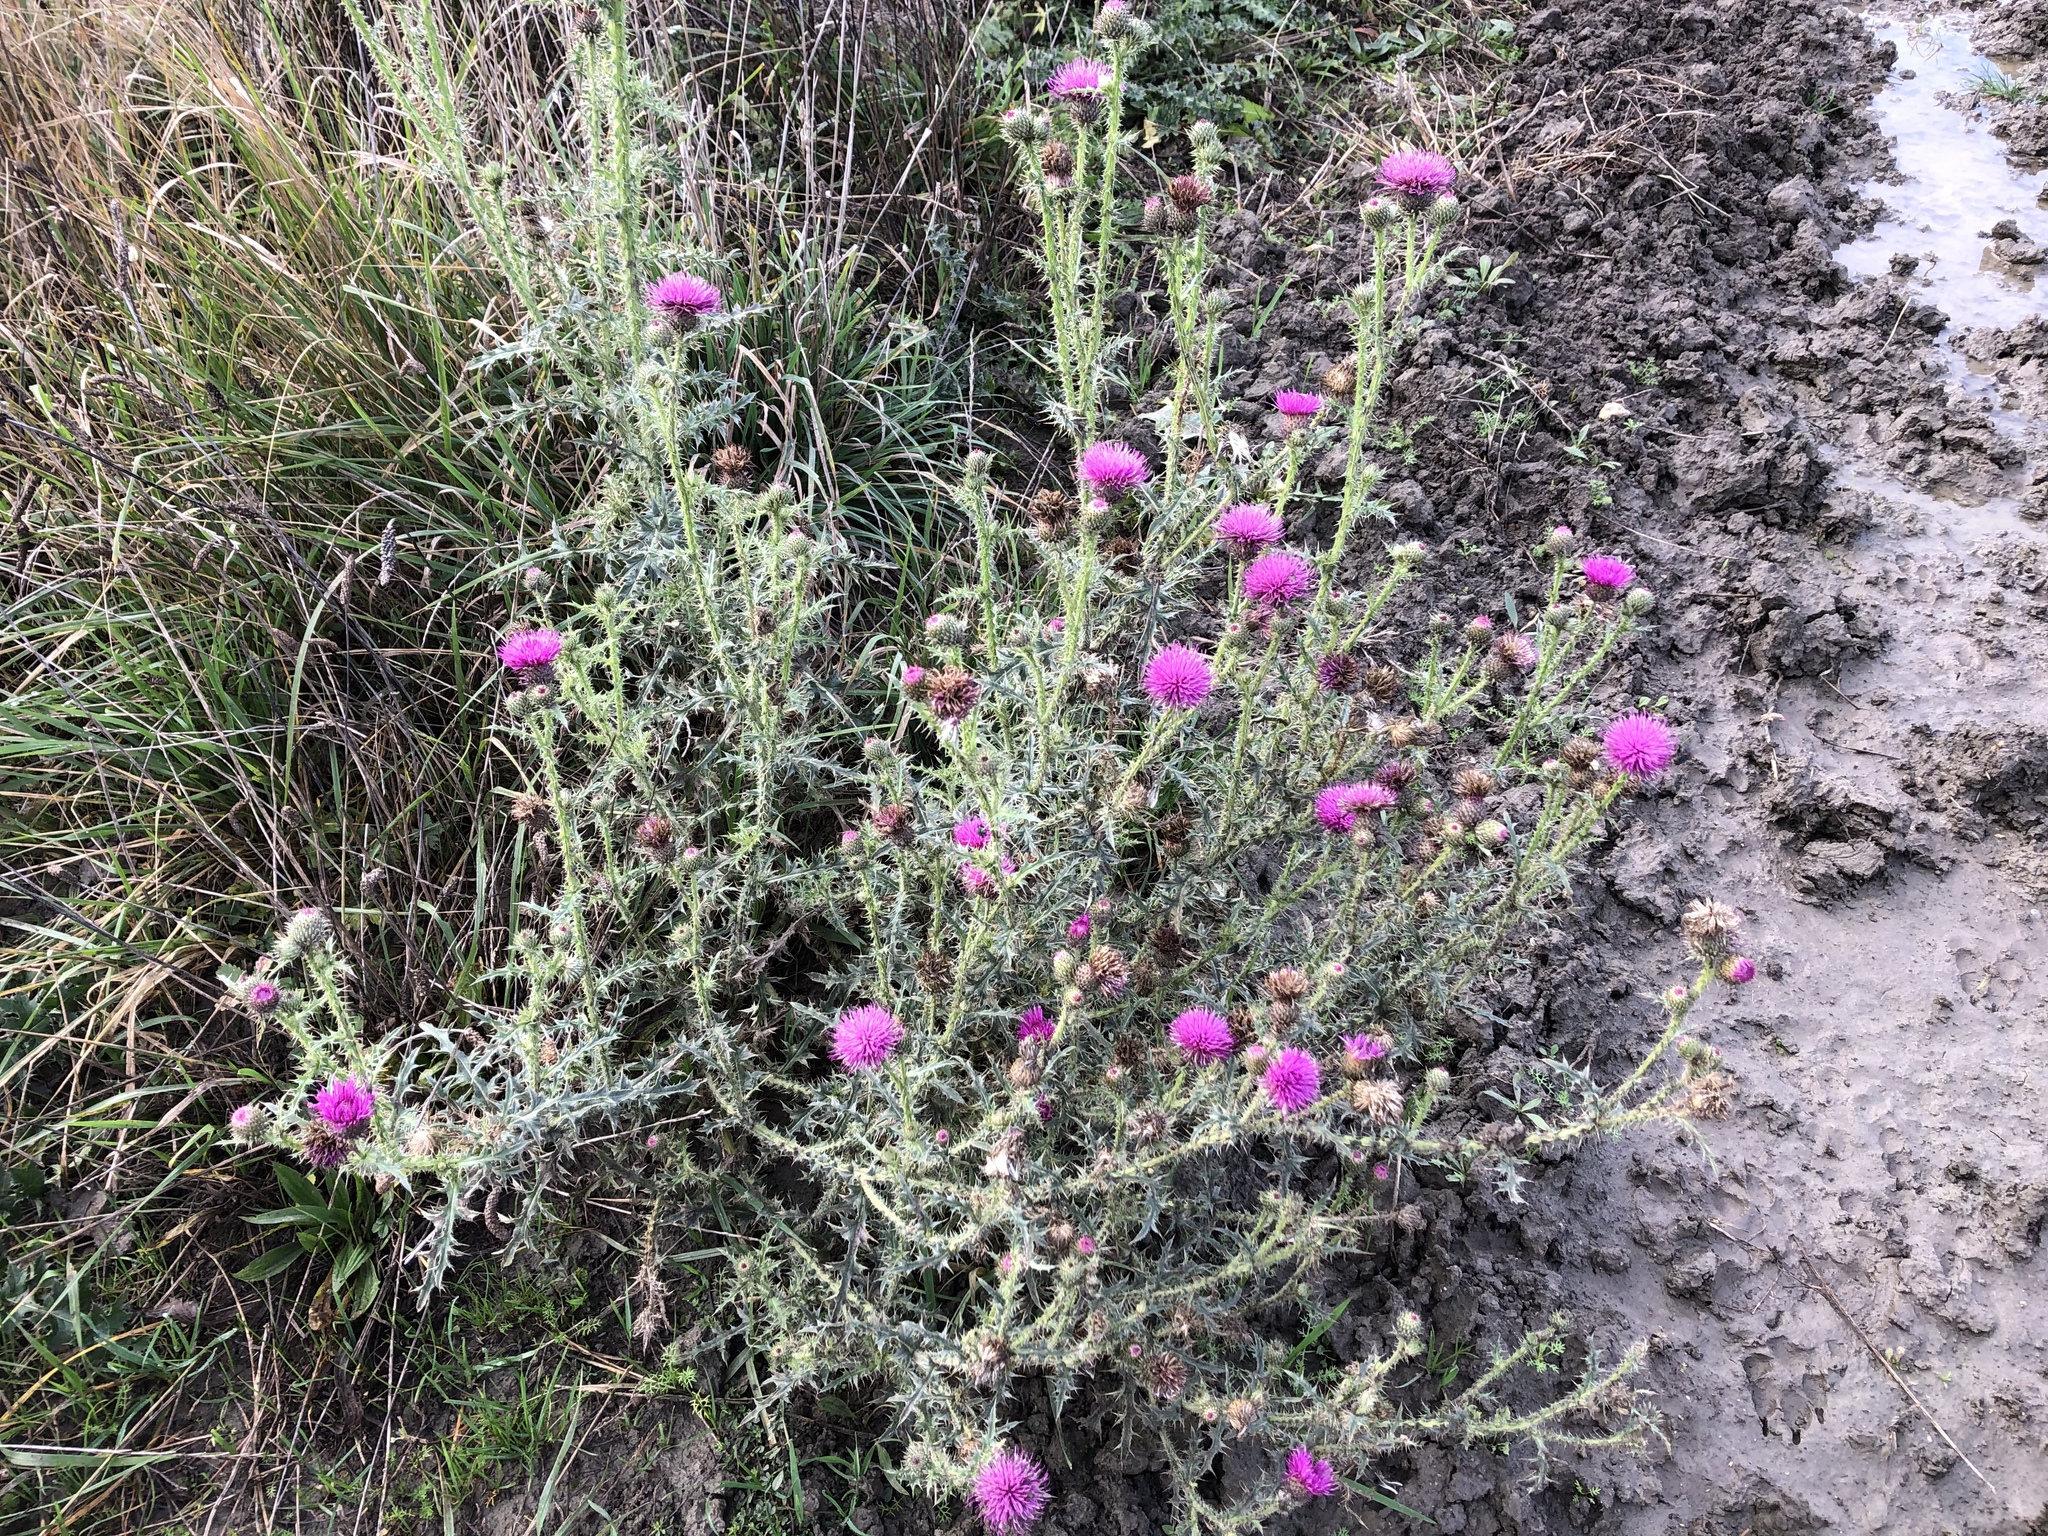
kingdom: Plantae
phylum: Tracheophyta
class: Magnoliopsida
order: Asterales
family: Asteraceae
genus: Carduus
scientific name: Carduus acanthoides
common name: Plumeless thistle
